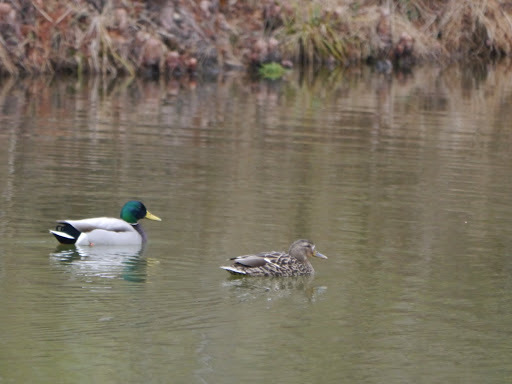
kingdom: Animalia
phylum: Chordata
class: Aves
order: Anseriformes
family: Anatidae
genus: Anas
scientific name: Anas platyrhynchos
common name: Mallard
